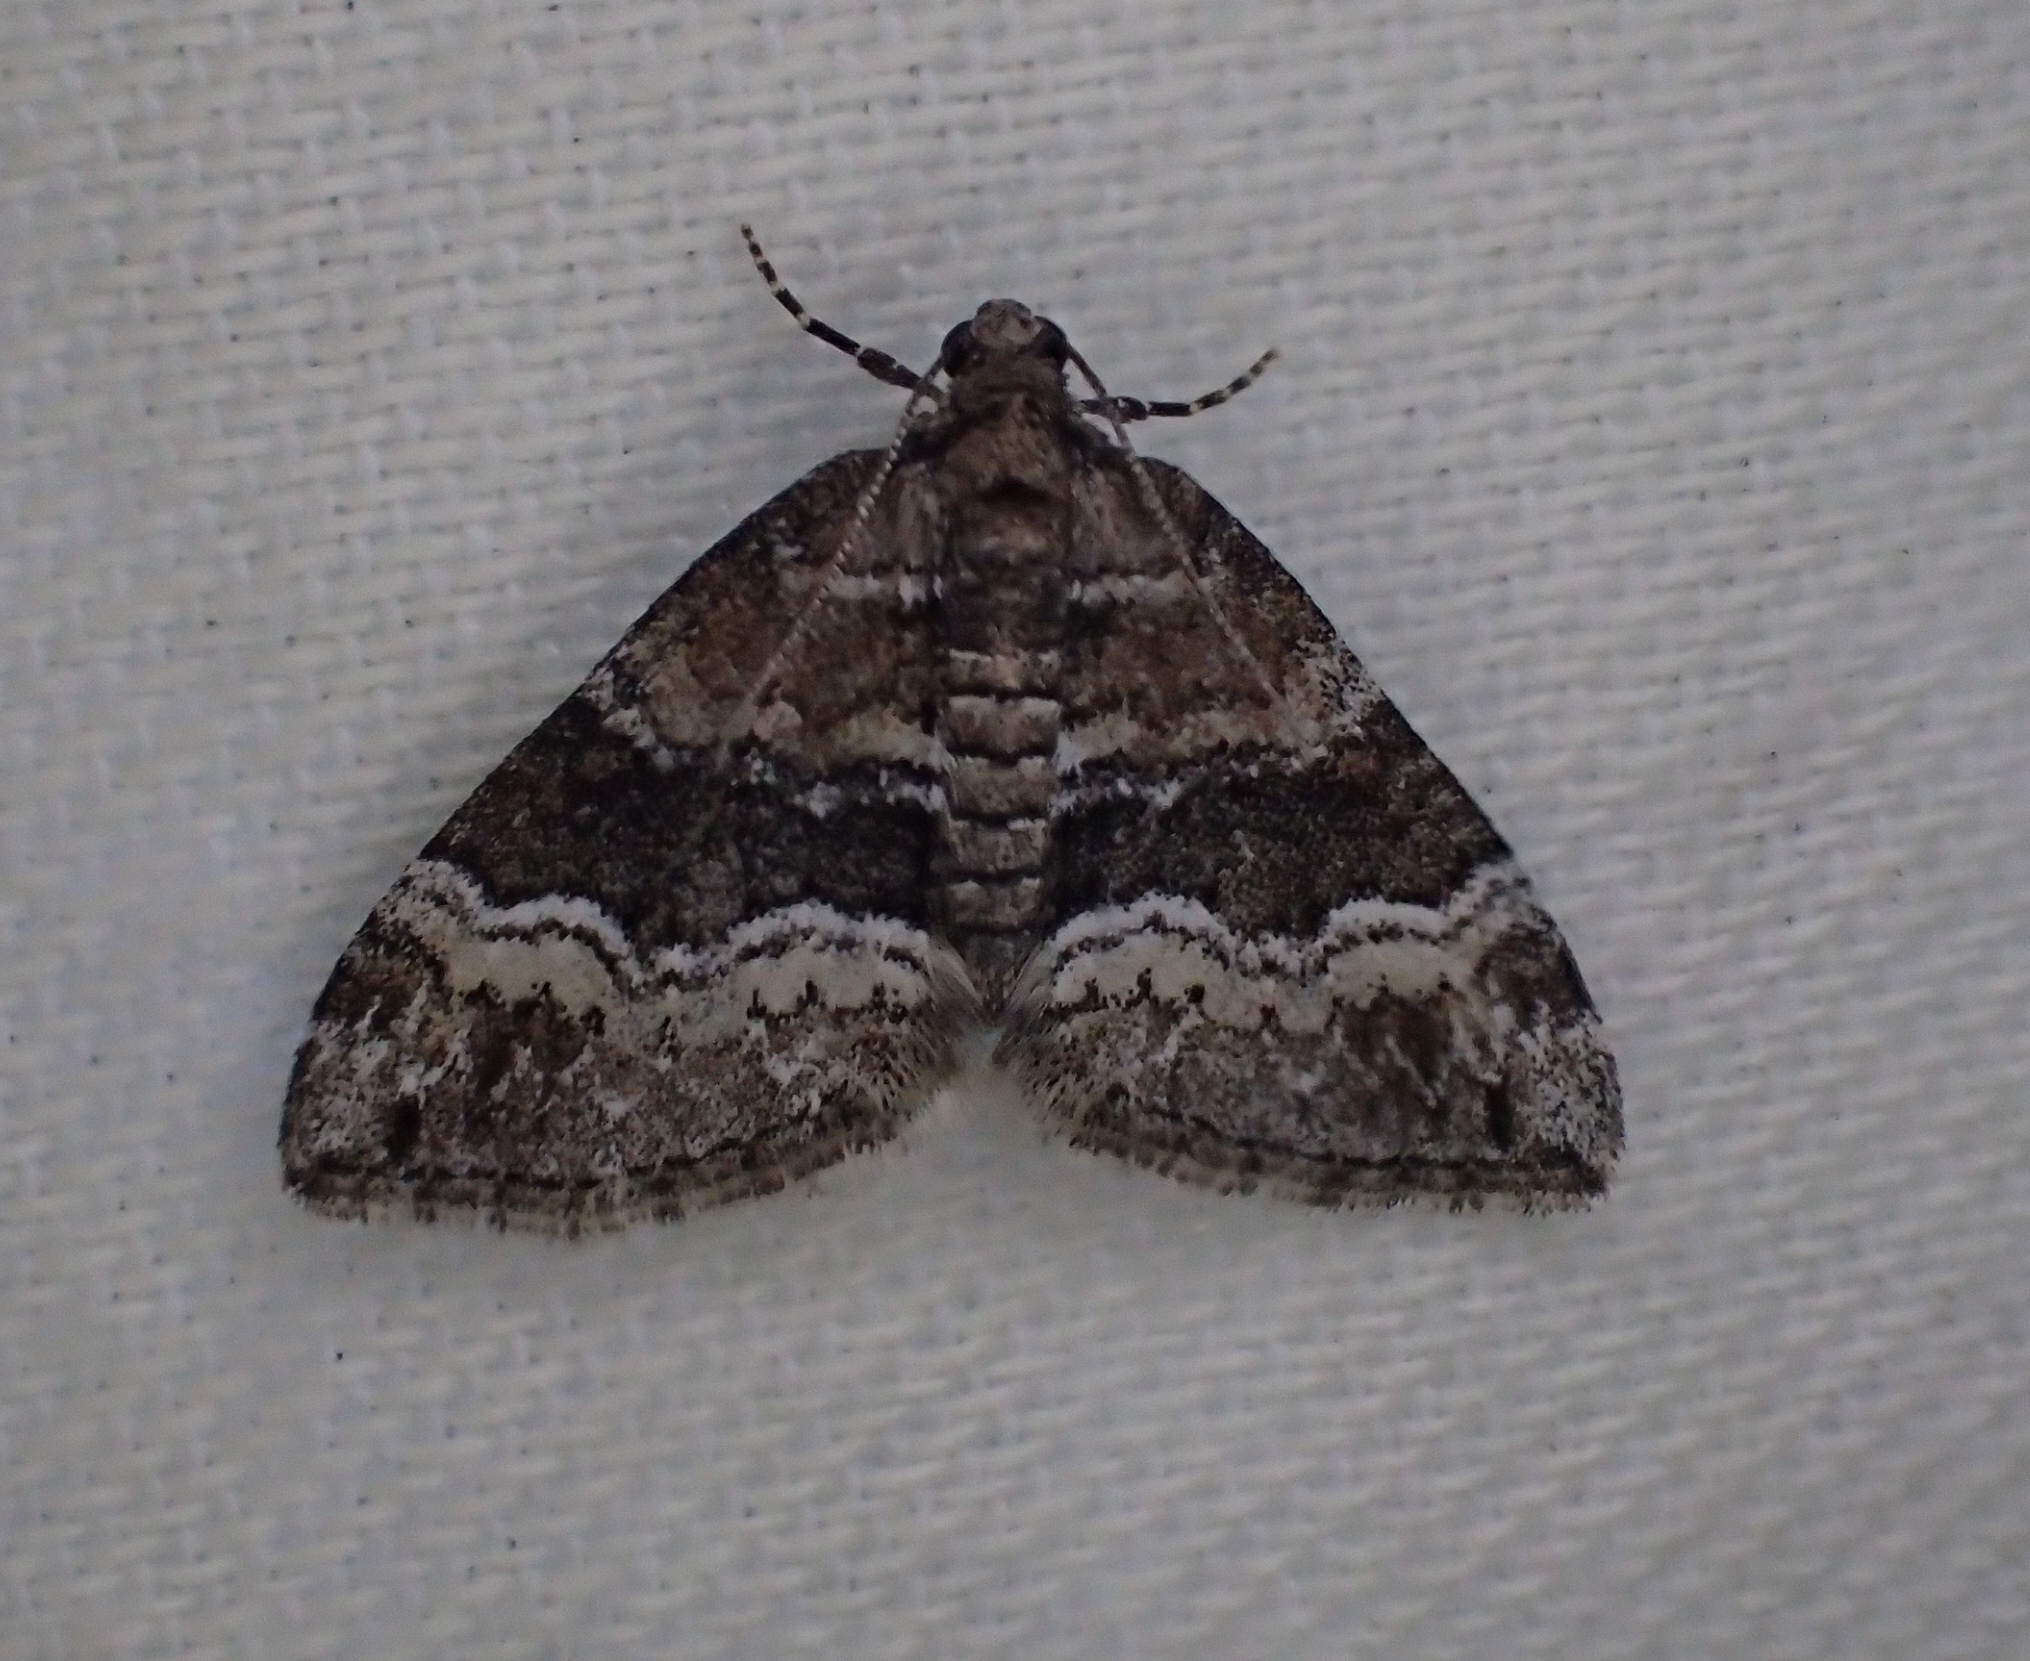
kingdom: Animalia
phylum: Arthropoda
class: Insecta
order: Lepidoptera
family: Geometridae
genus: Perizoma
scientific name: Perizoma bifaciata
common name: Barred rivulet
